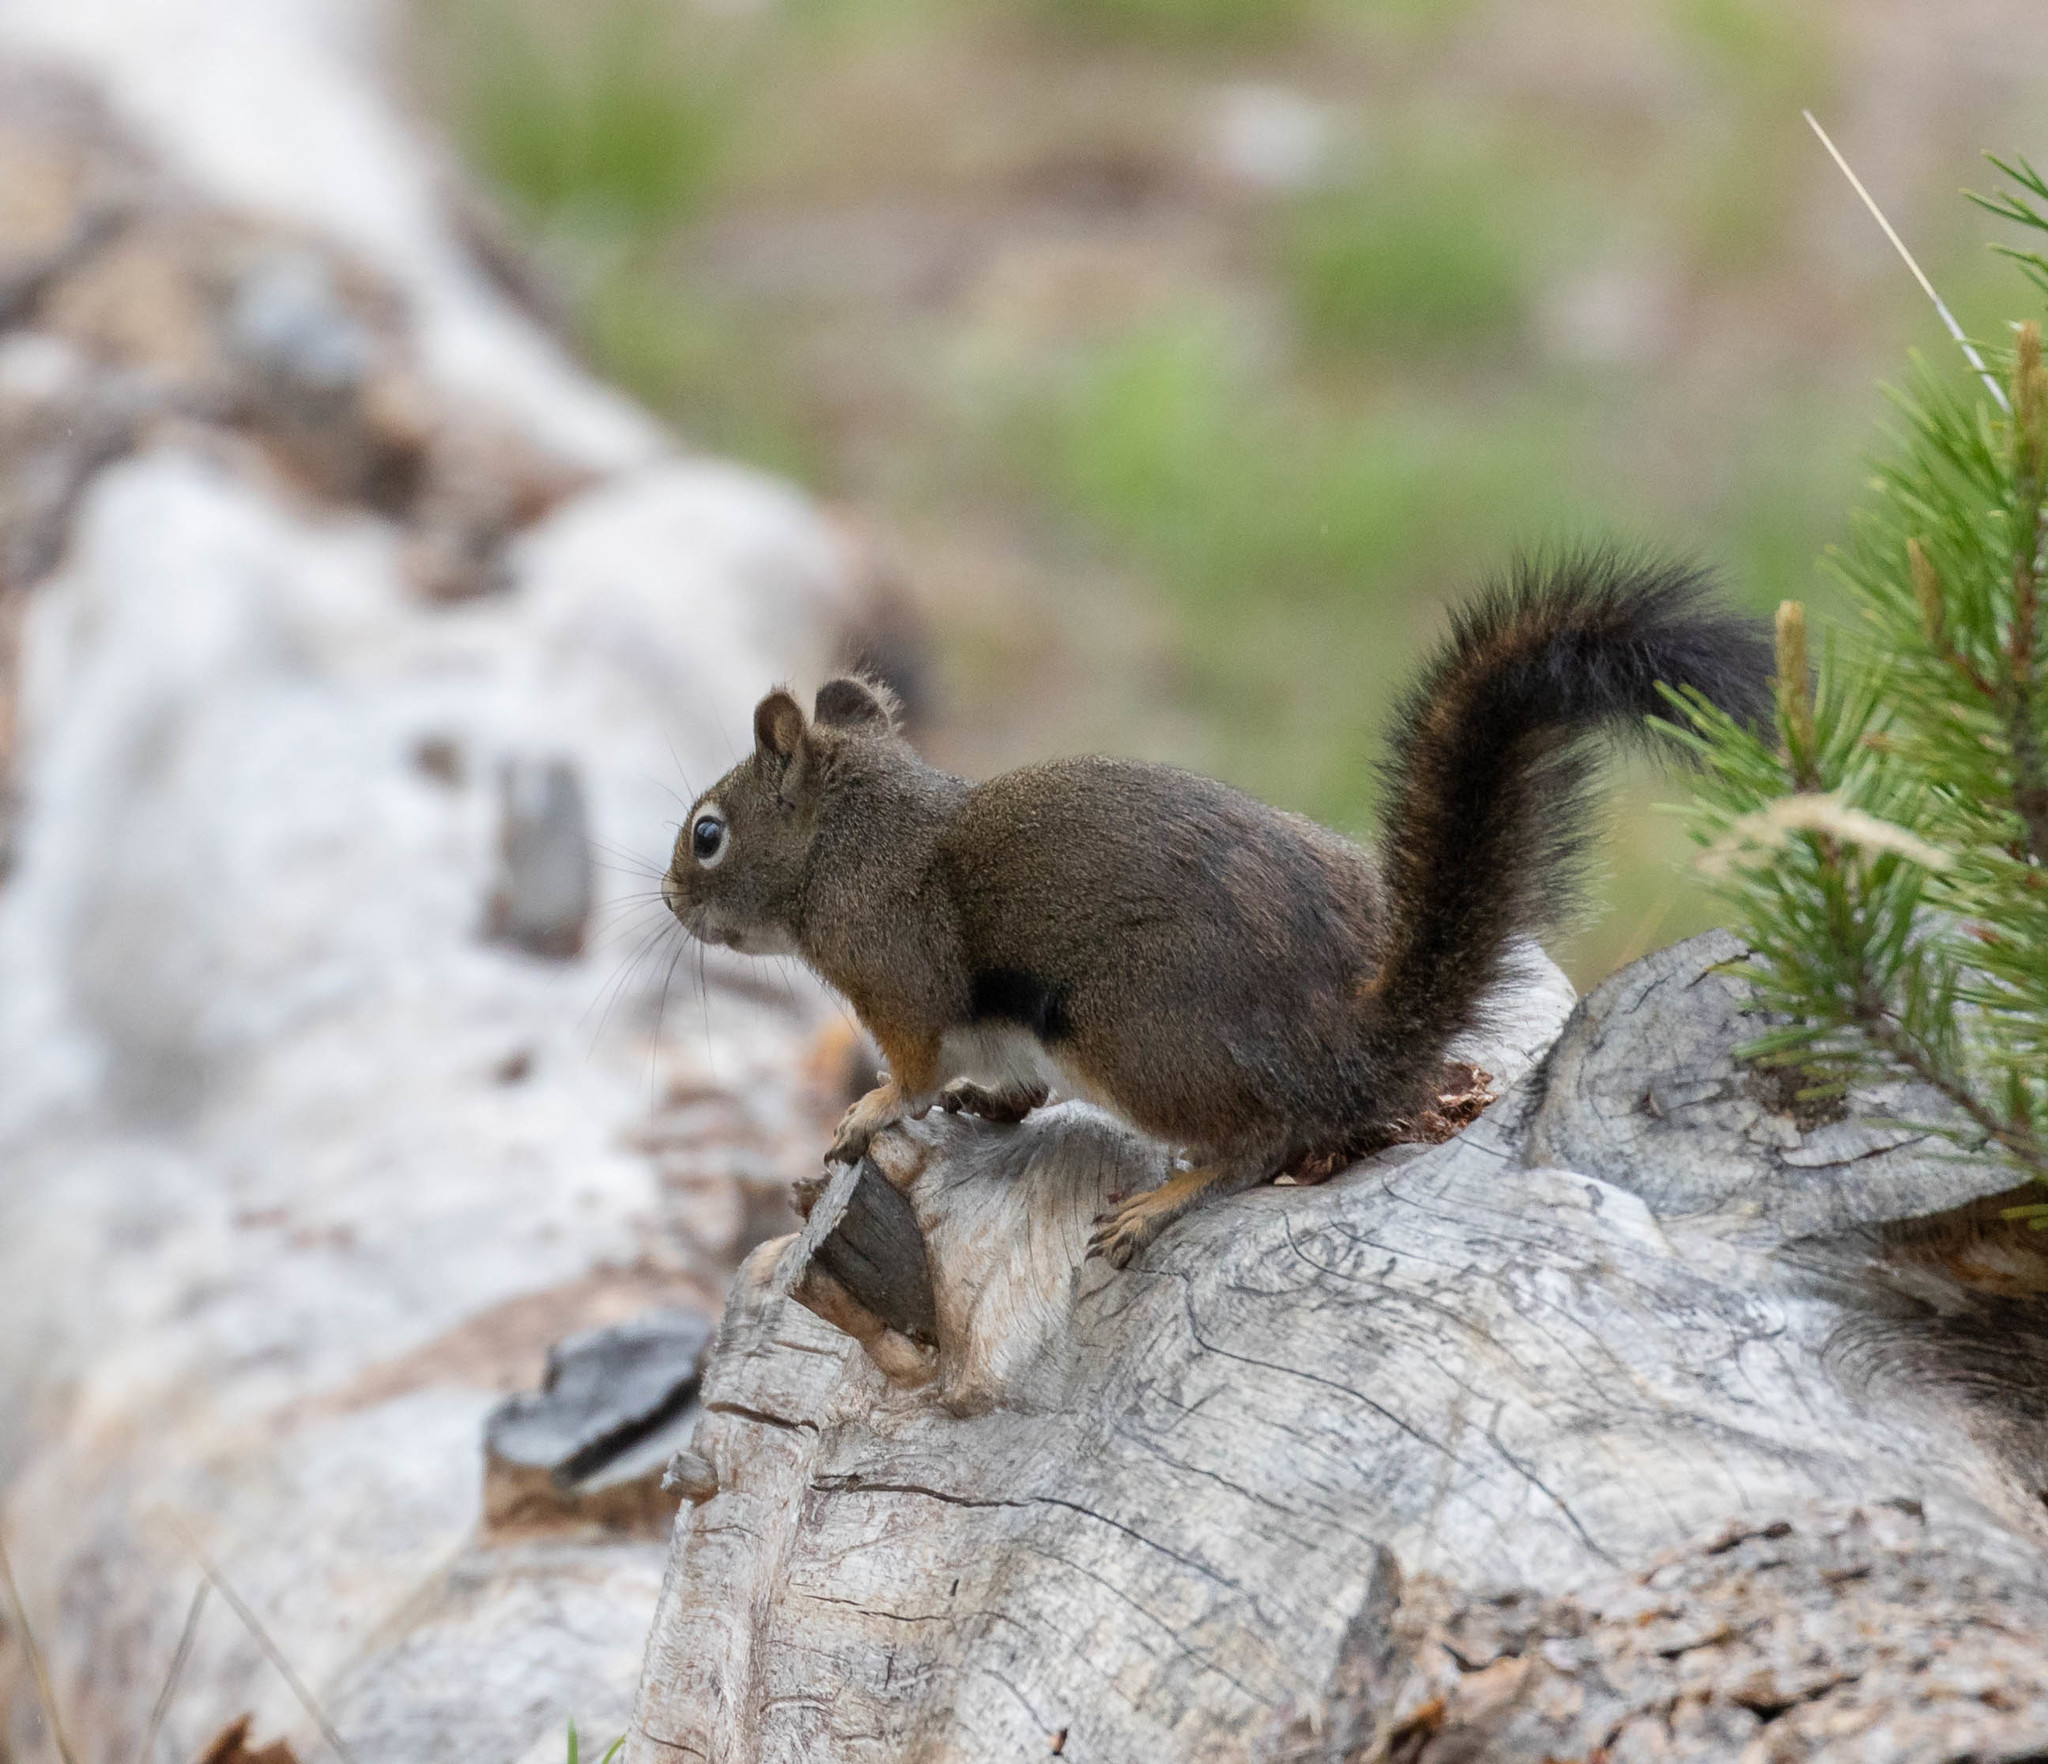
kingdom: Animalia
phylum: Chordata
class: Mammalia
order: Rodentia
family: Sciuridae
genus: Tamiasciurus
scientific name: Tamiasciurus hudsonicus
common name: Red squirrel
